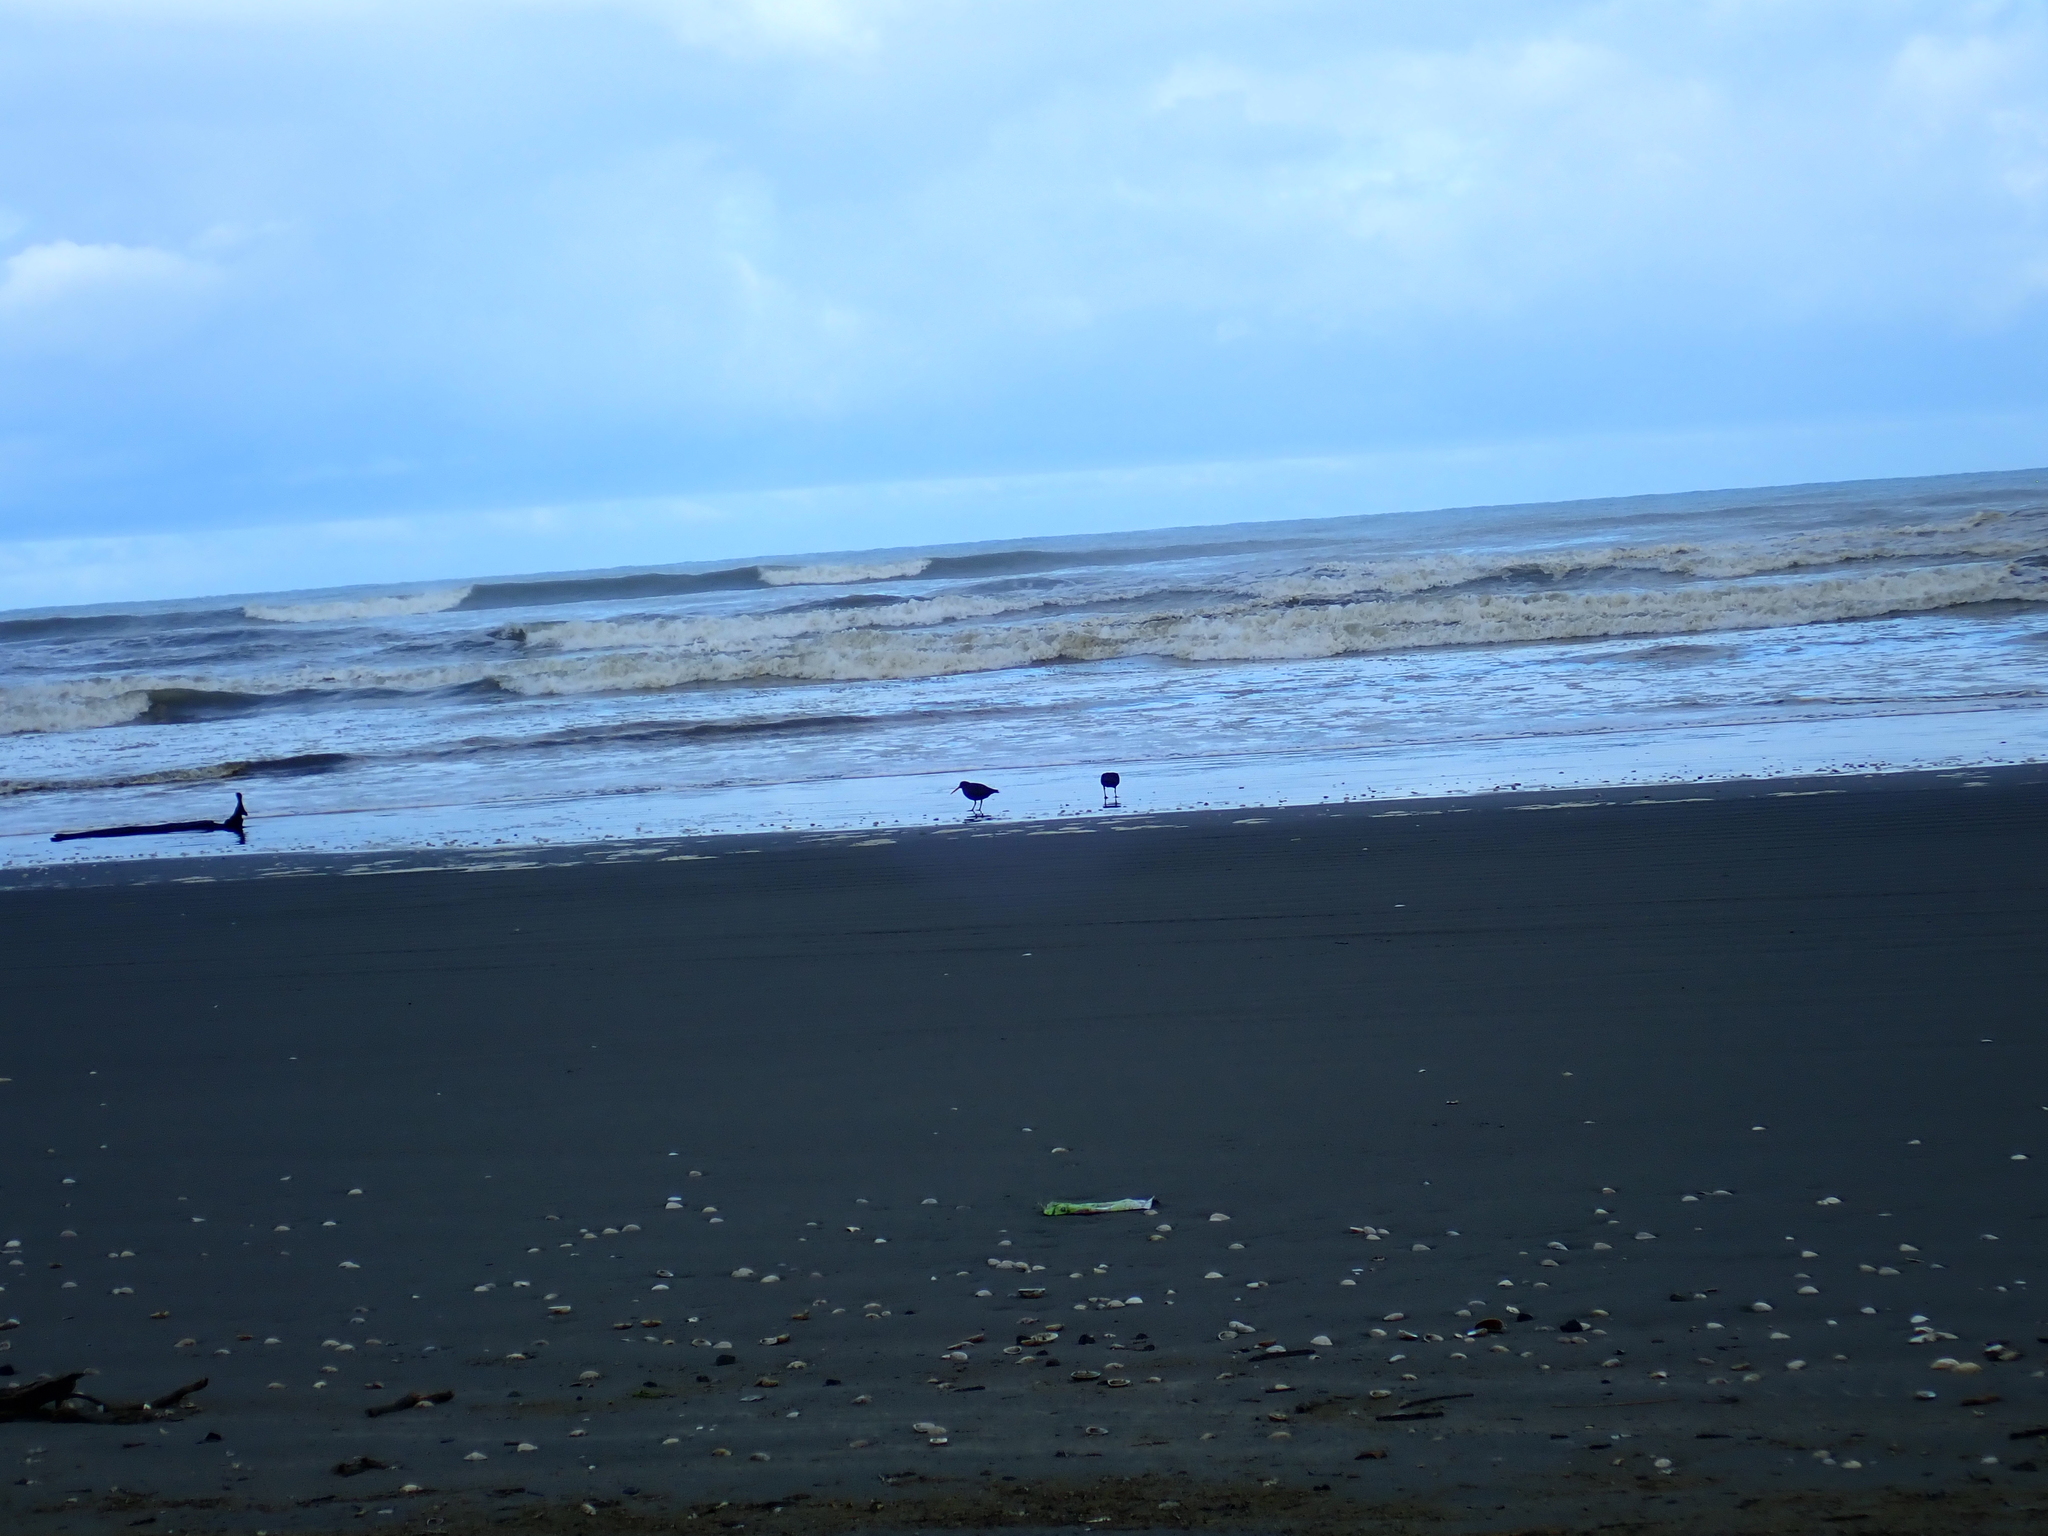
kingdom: Animalia
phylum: Chordata
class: Aves
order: Charadriiformes
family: Haematopodidae
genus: Haematopus
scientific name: Haematopus unicolor
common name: Variable oystercatcher
